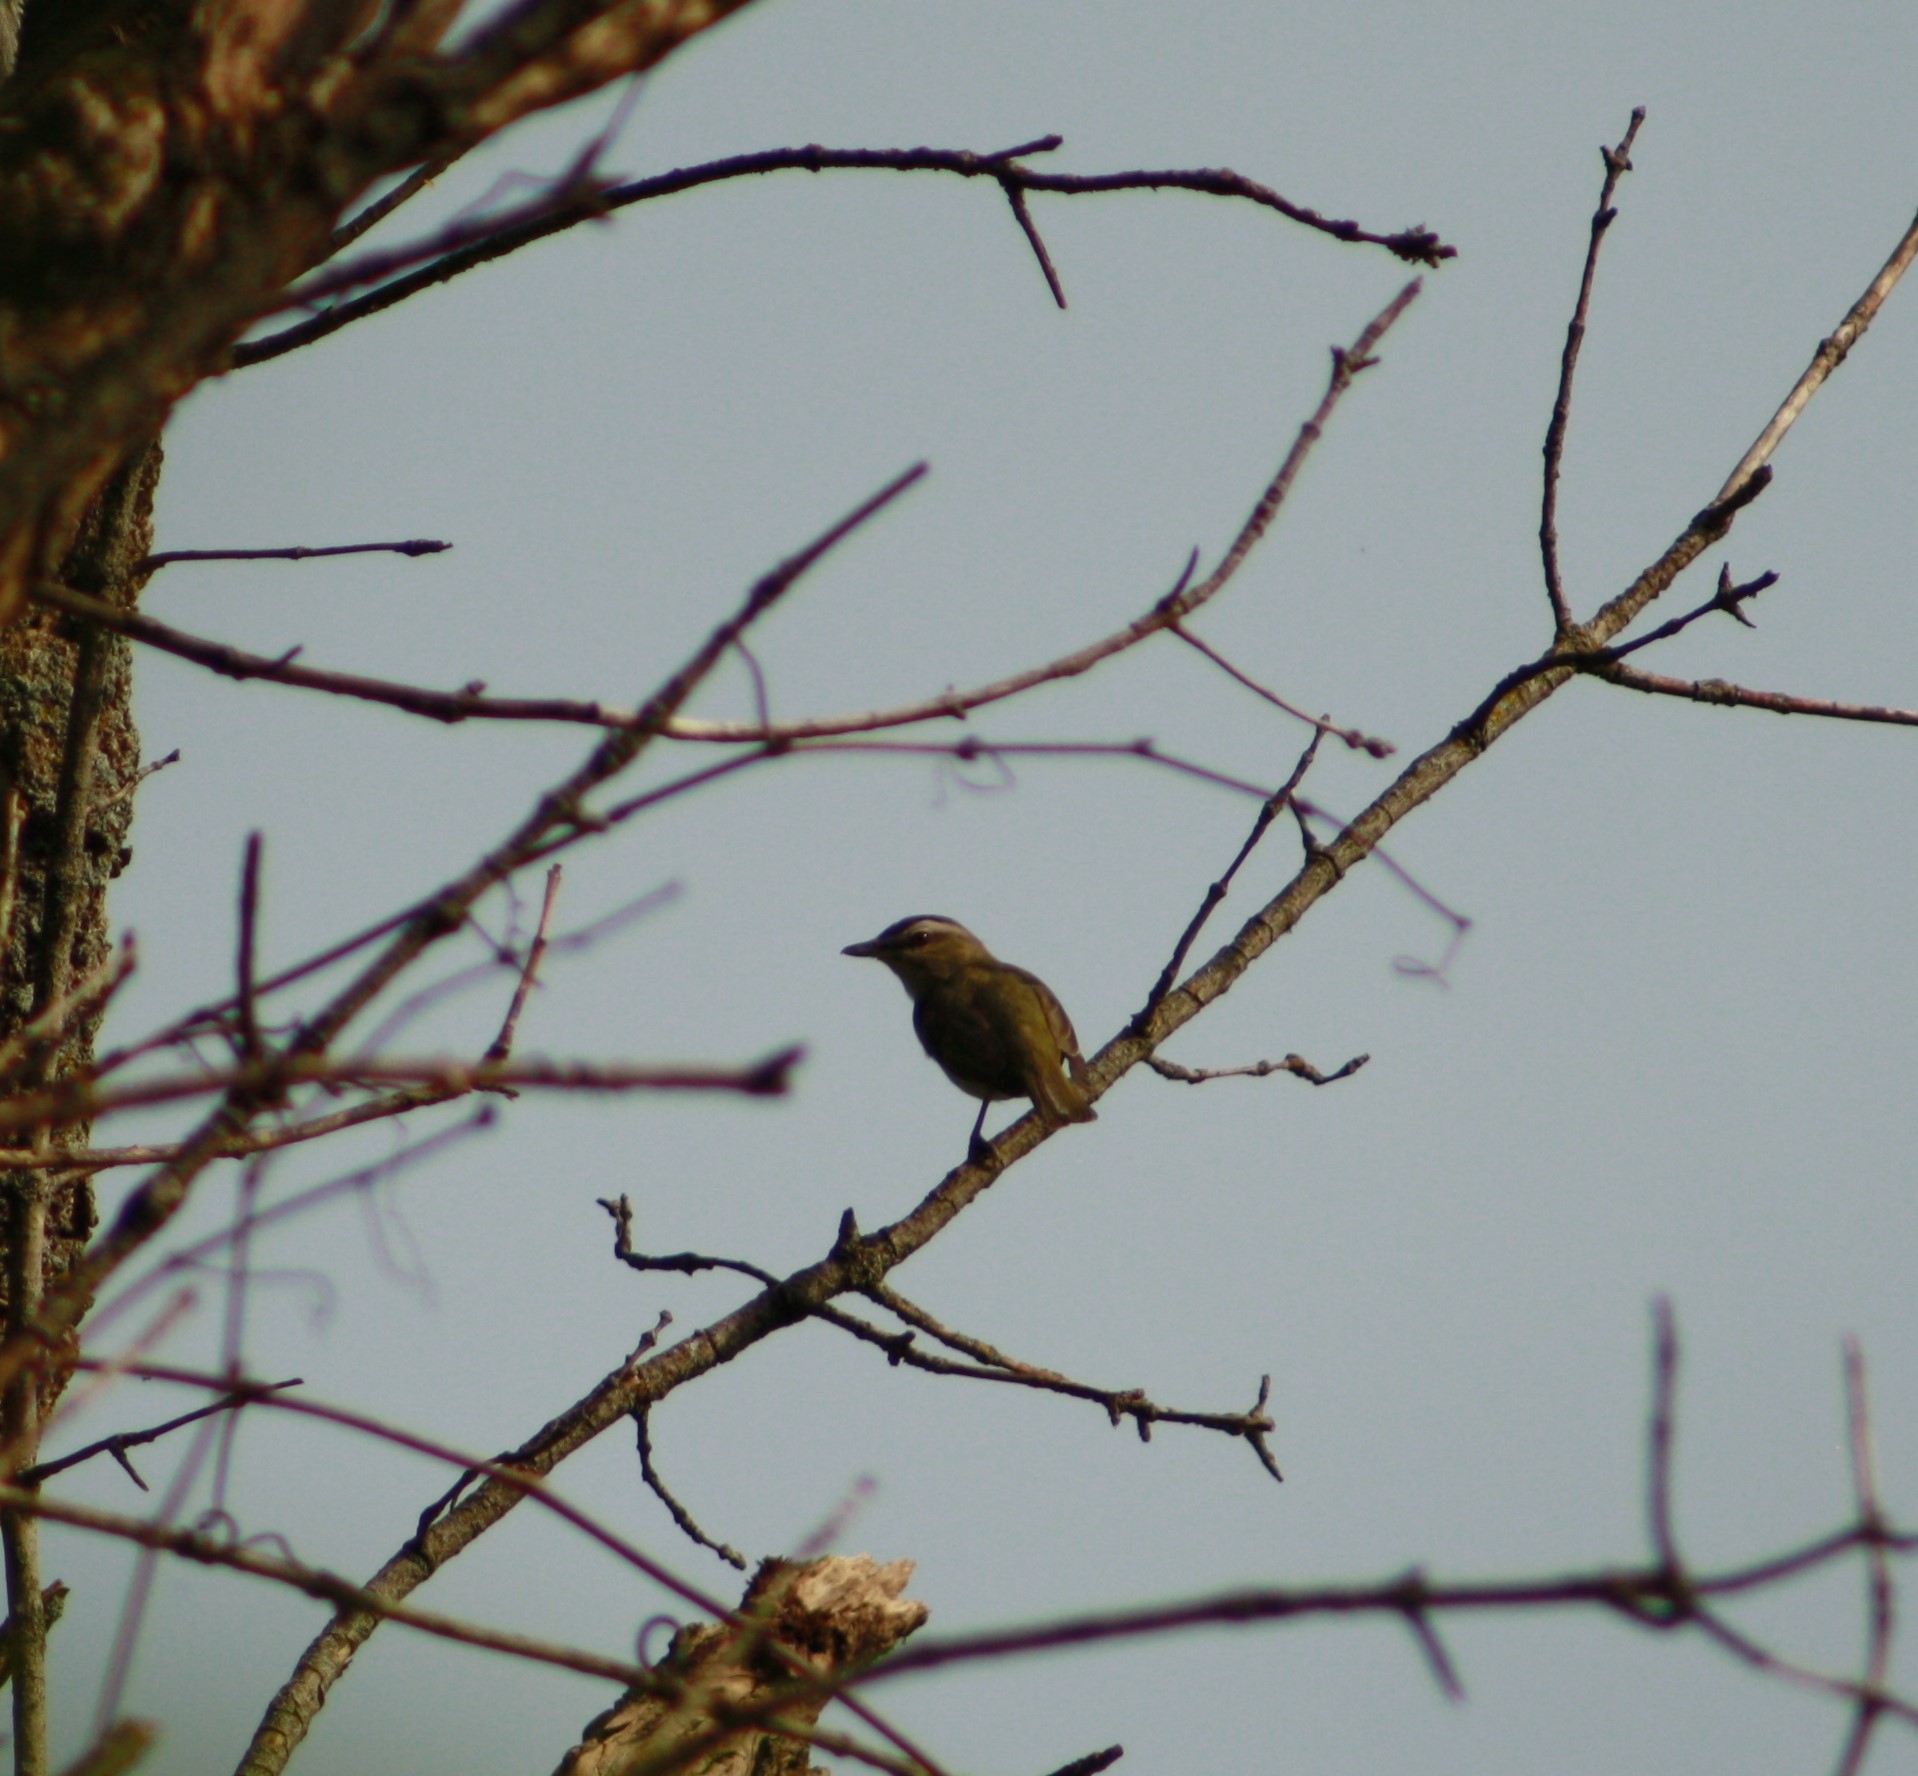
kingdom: Animalia
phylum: Chordata
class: Aves
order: Passeriformes
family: Vireonidae
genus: Vireo
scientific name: Vireo olivaceus
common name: Red-eyed vireo
